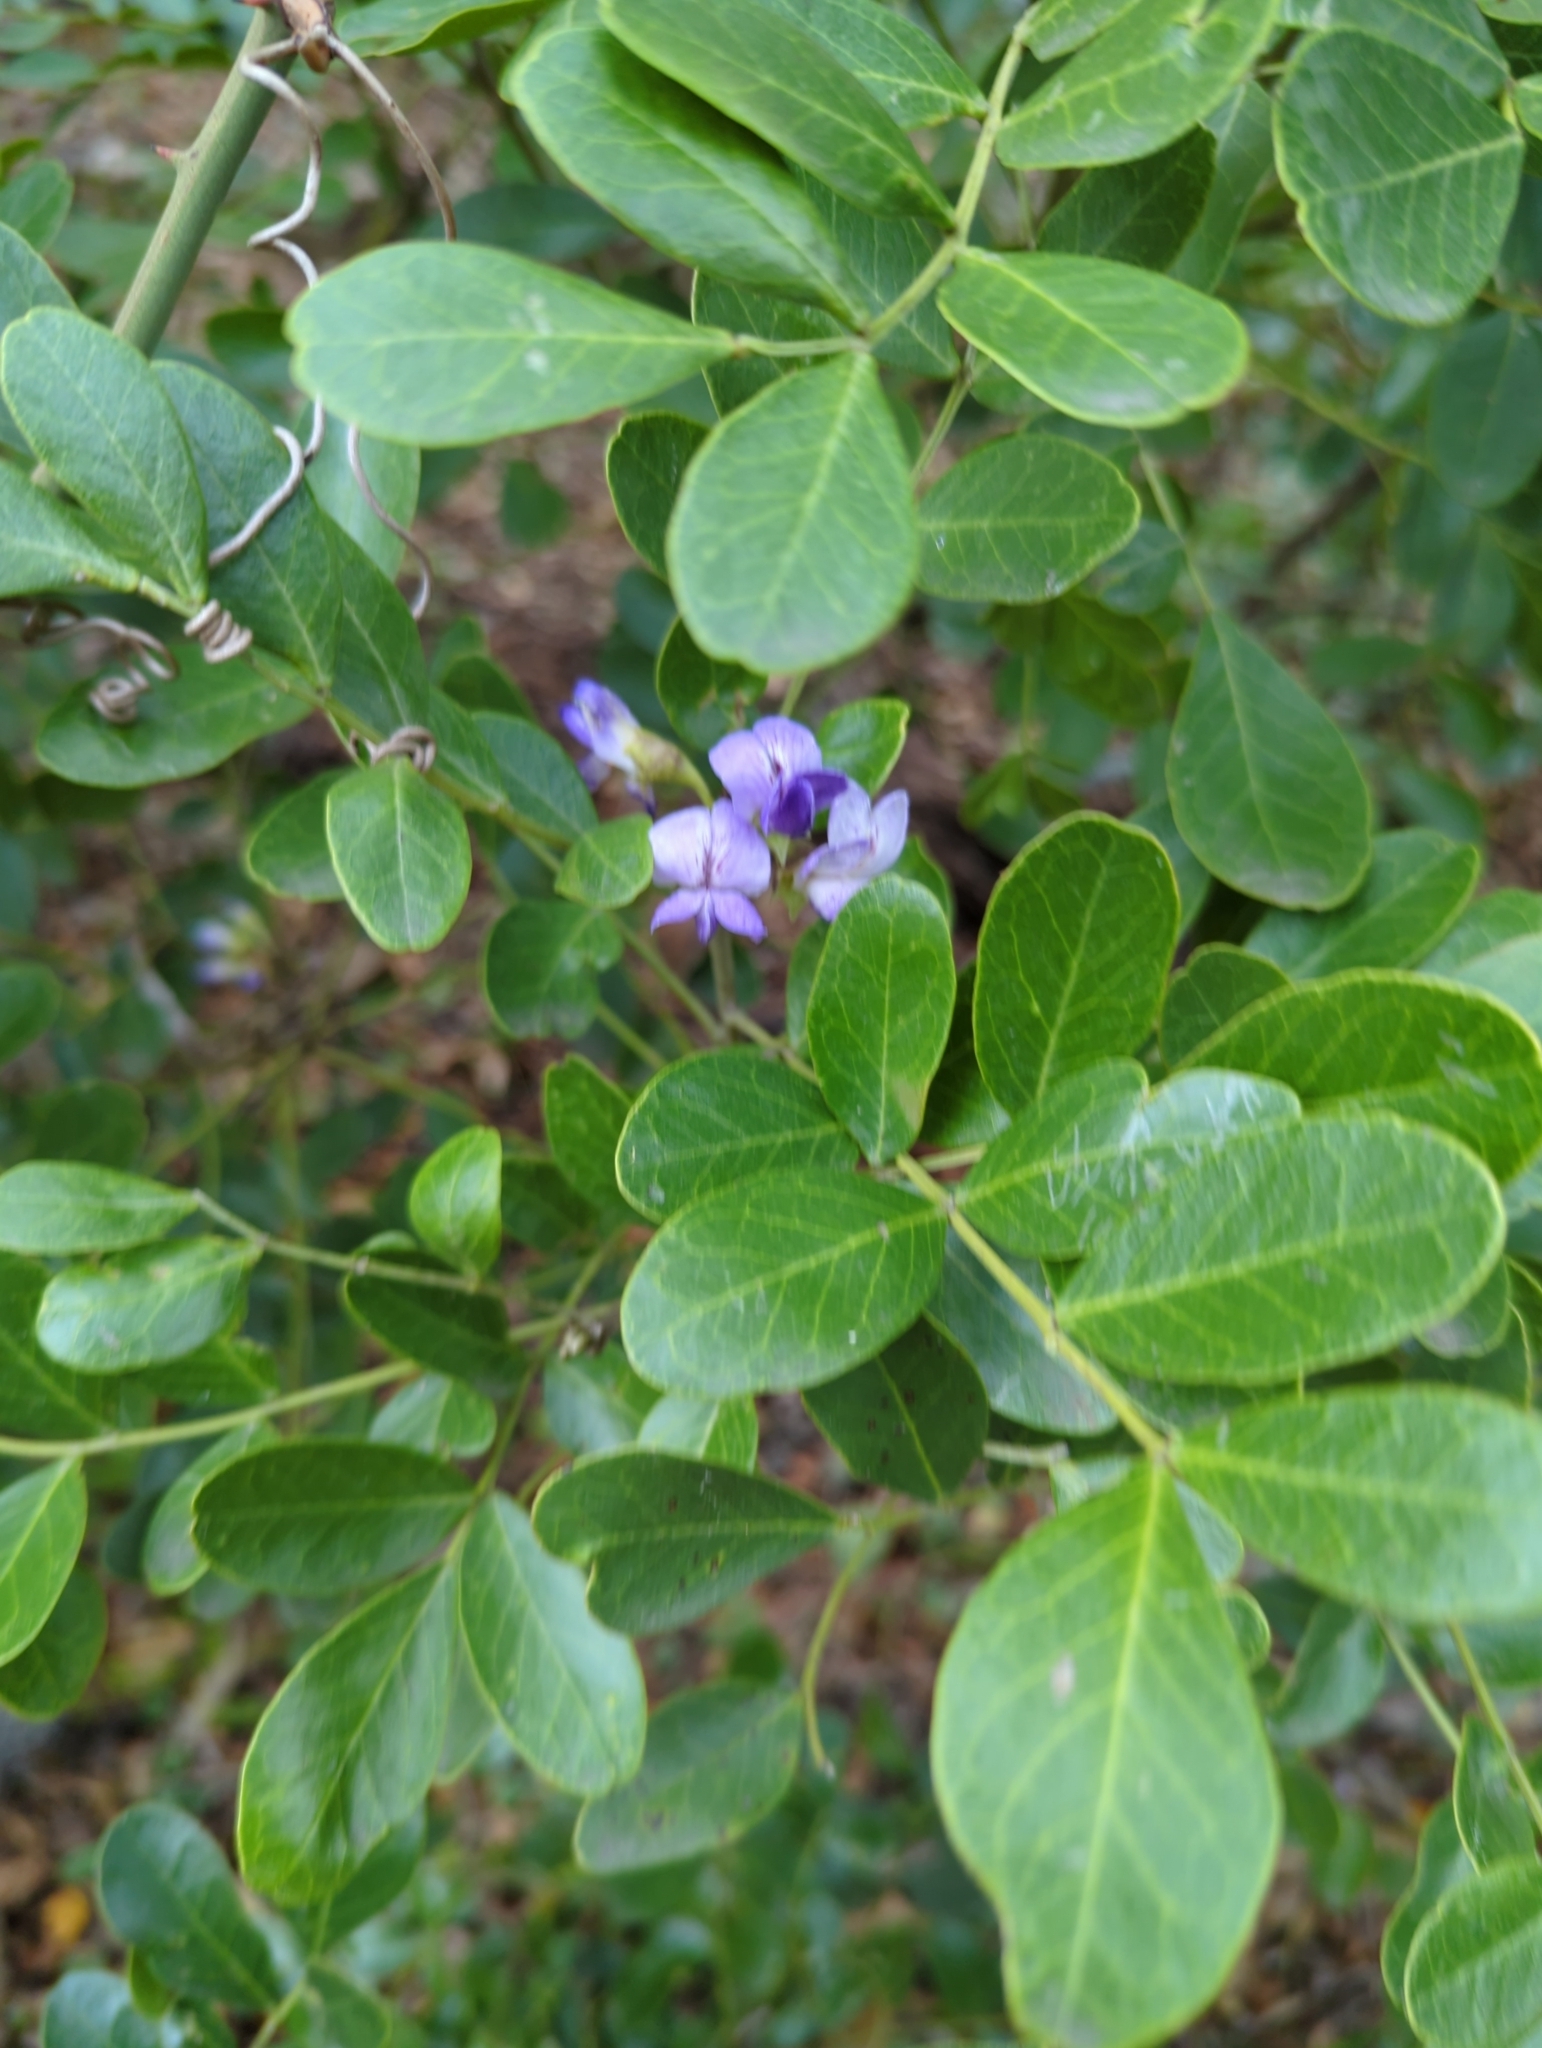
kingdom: Plantae
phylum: Tracheophyta
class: Magnoliopsida
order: Fabales
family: Fabaceae
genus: Dermatophyllum
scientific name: Dermatophyllum secundiflorum
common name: Texas-mountain-laurel
